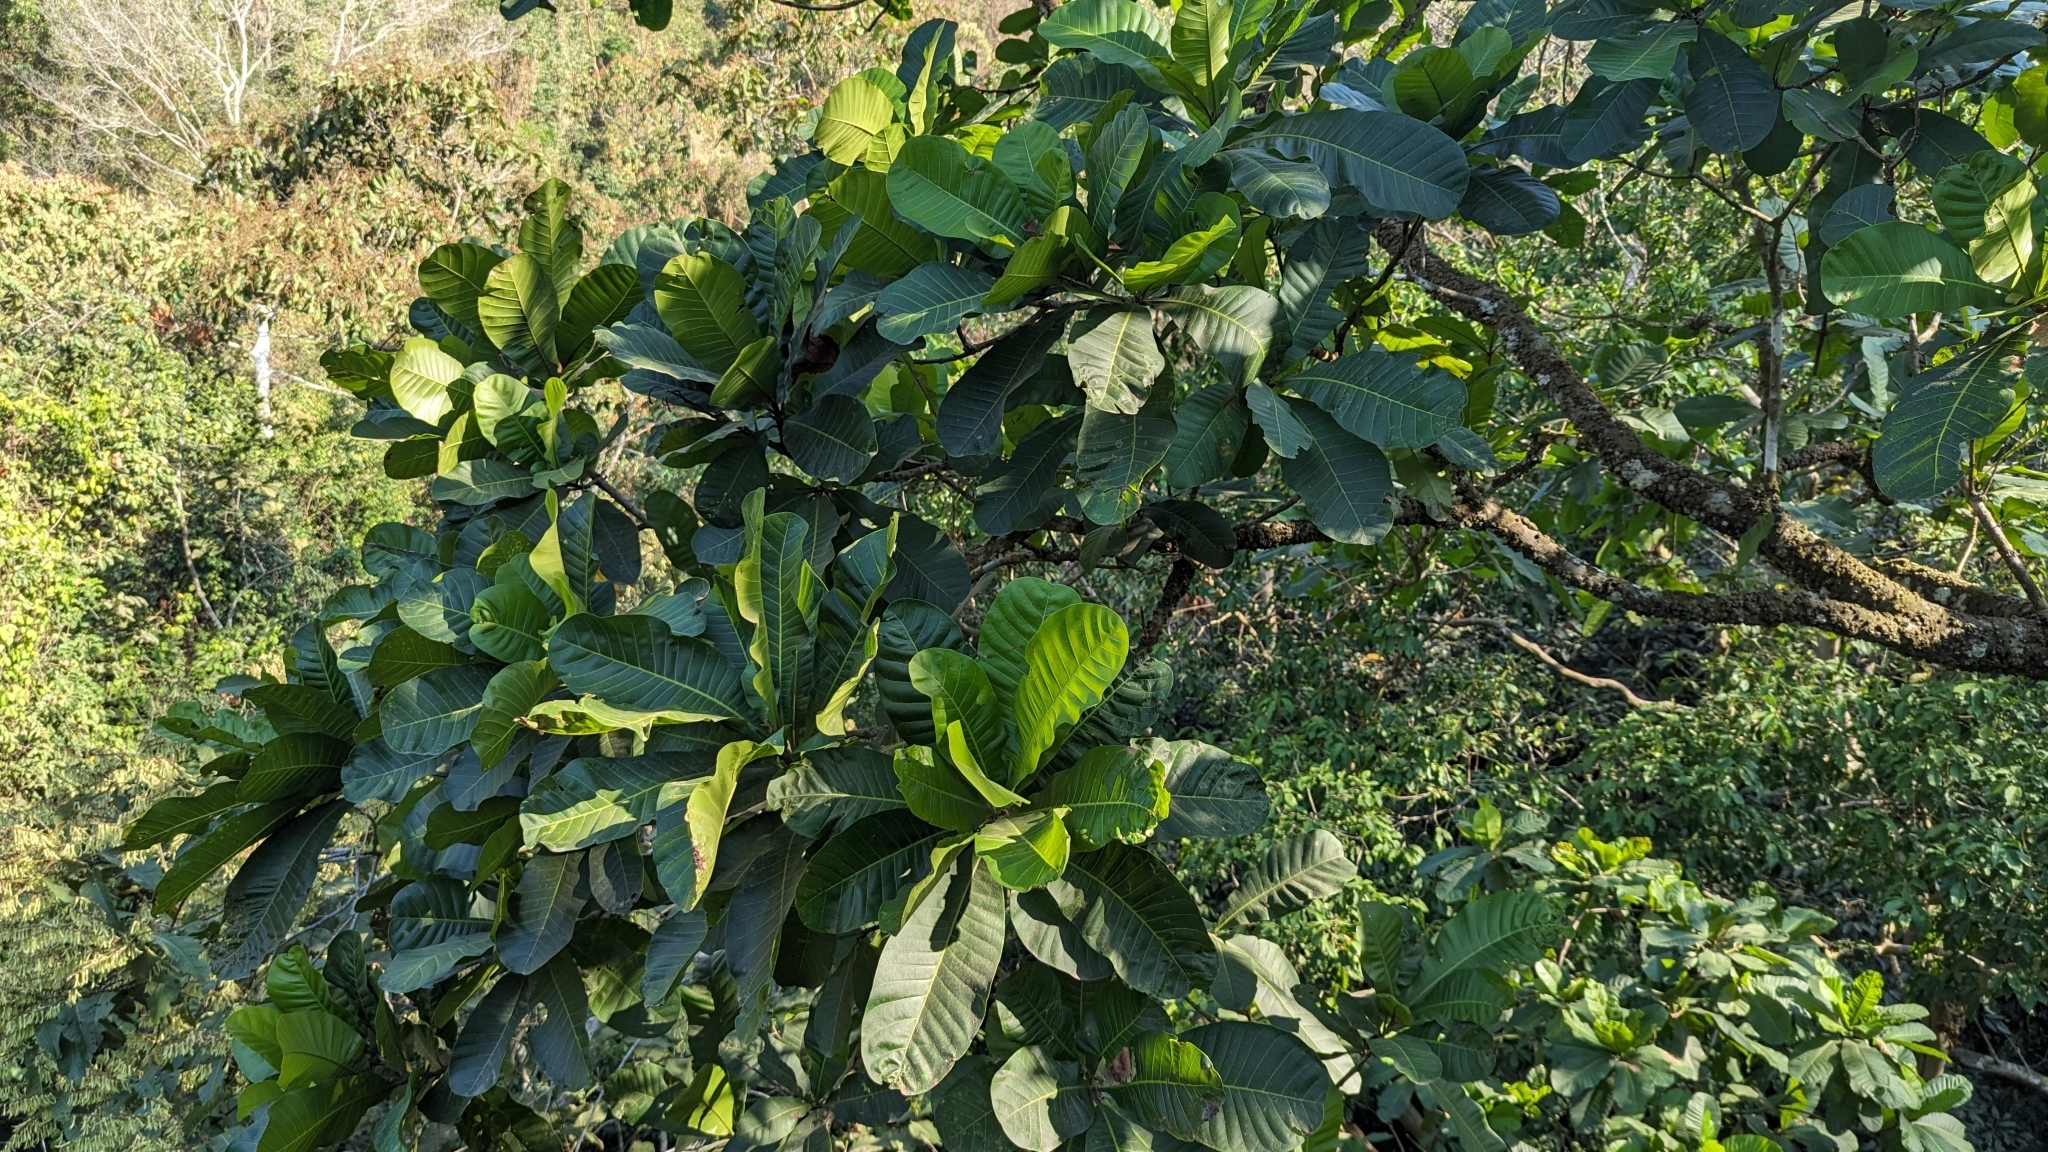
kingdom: Plantae
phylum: Tracheophyta
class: Magnoliopsida
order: Sapindales
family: Anacardiaceae
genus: Anacardium
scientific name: Anacardium excelsum
